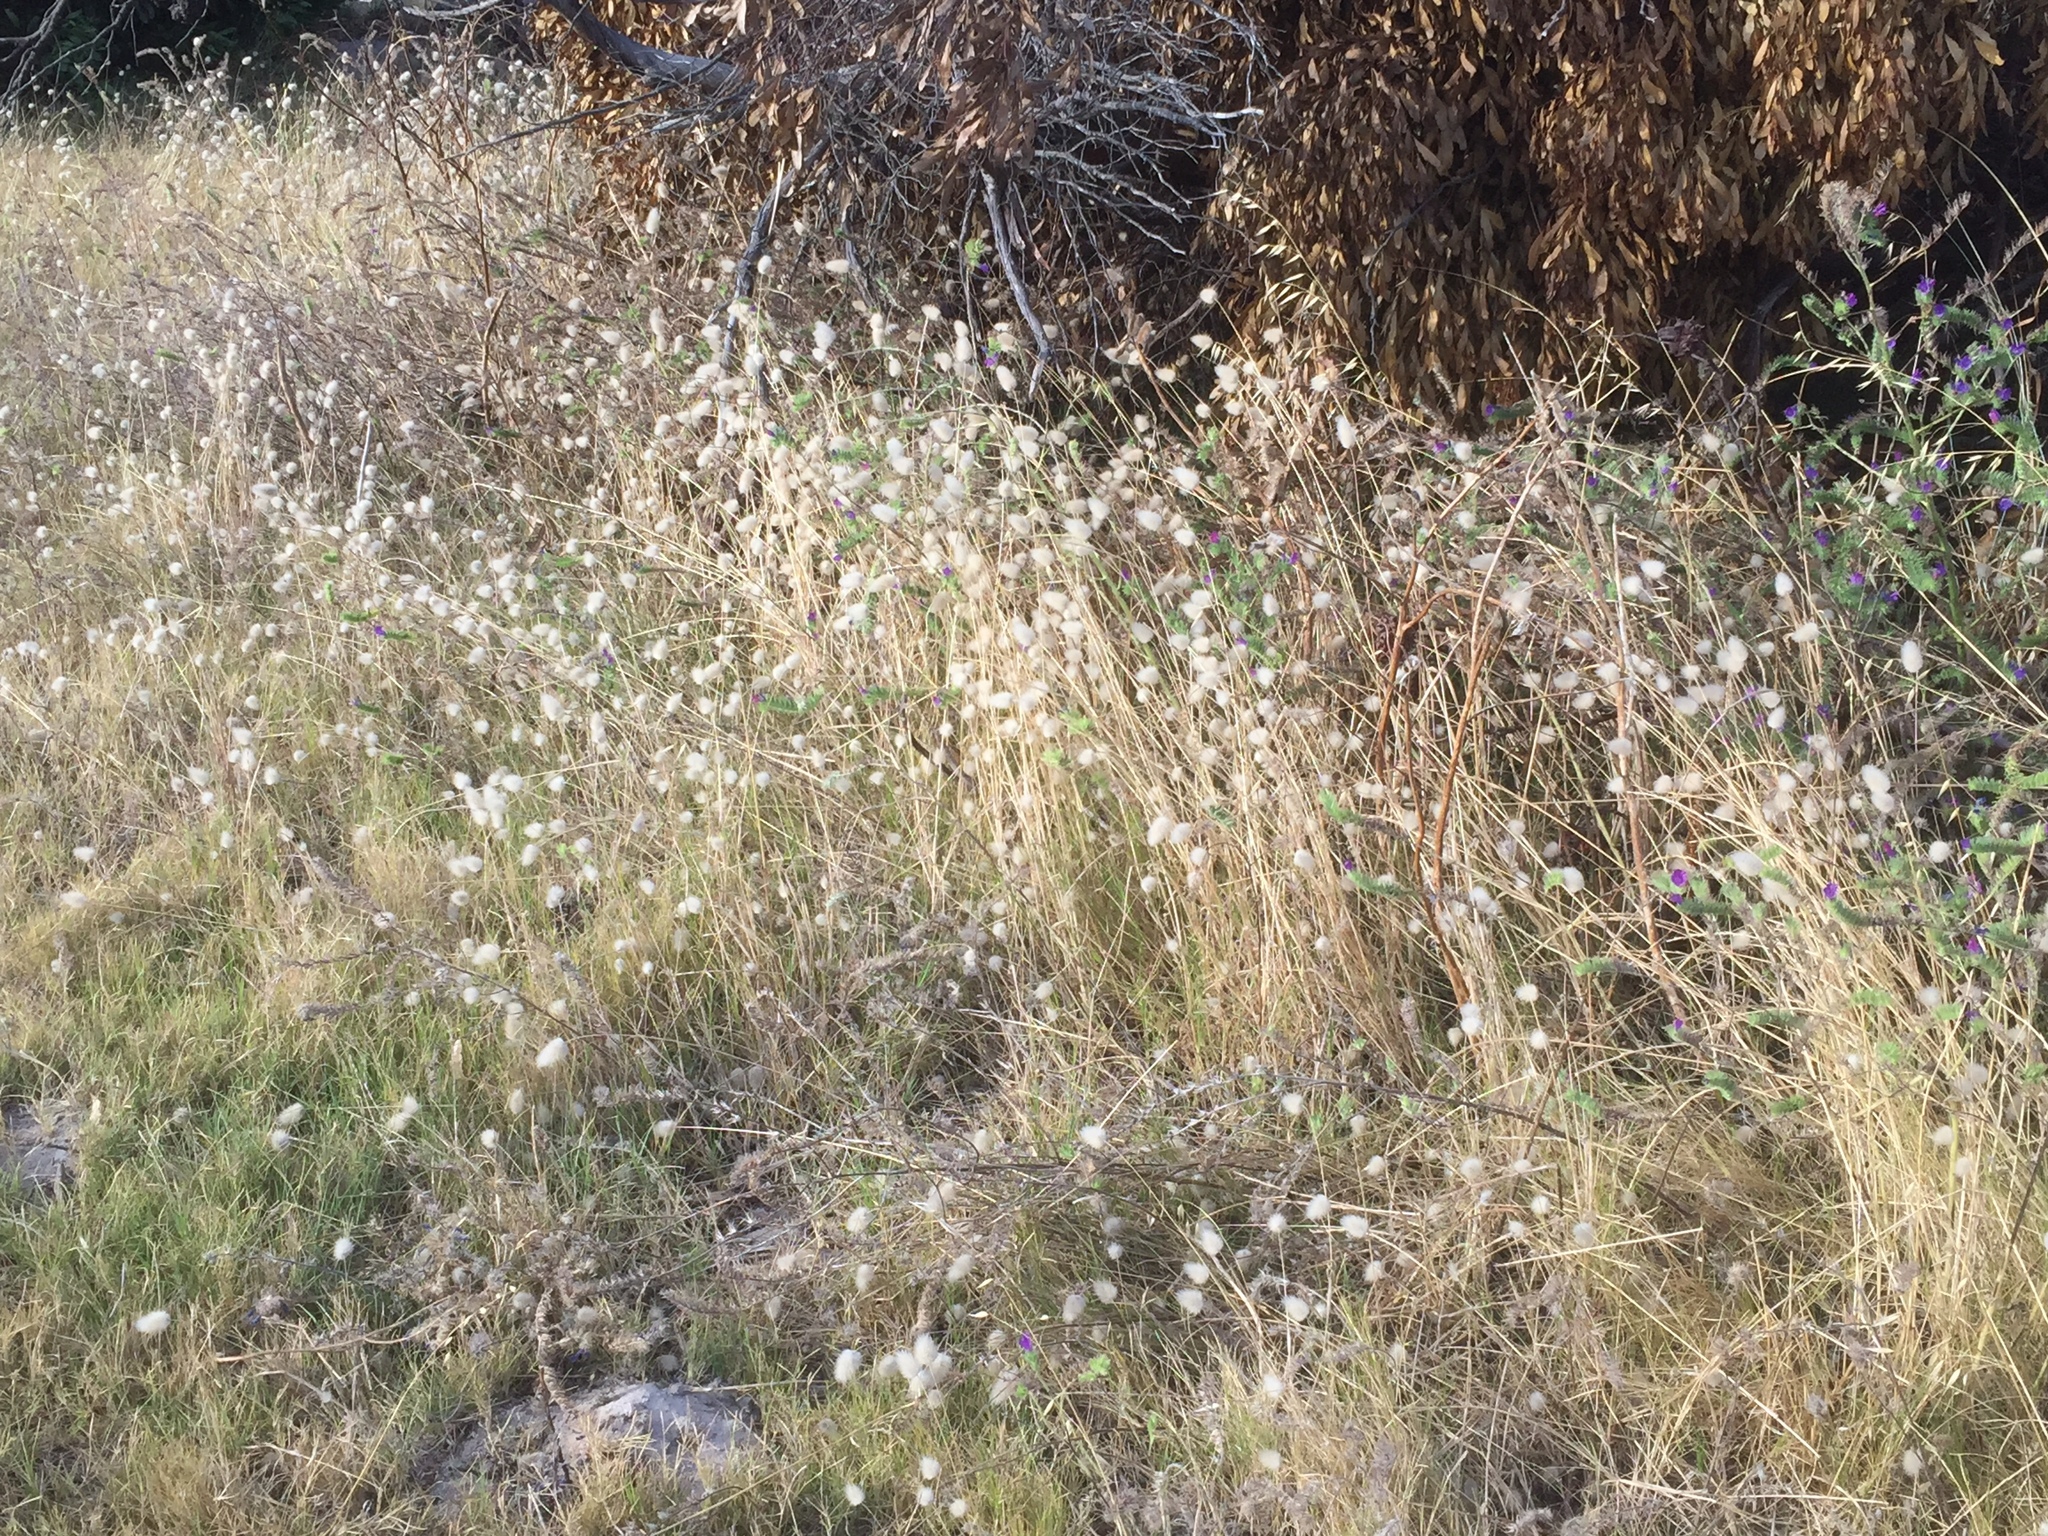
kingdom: Plantae
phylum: Tracheophyta
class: Liliopsida
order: Poales
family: Poaceae
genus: Lagurus
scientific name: Lagurus ovatus
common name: Hare's-tail
